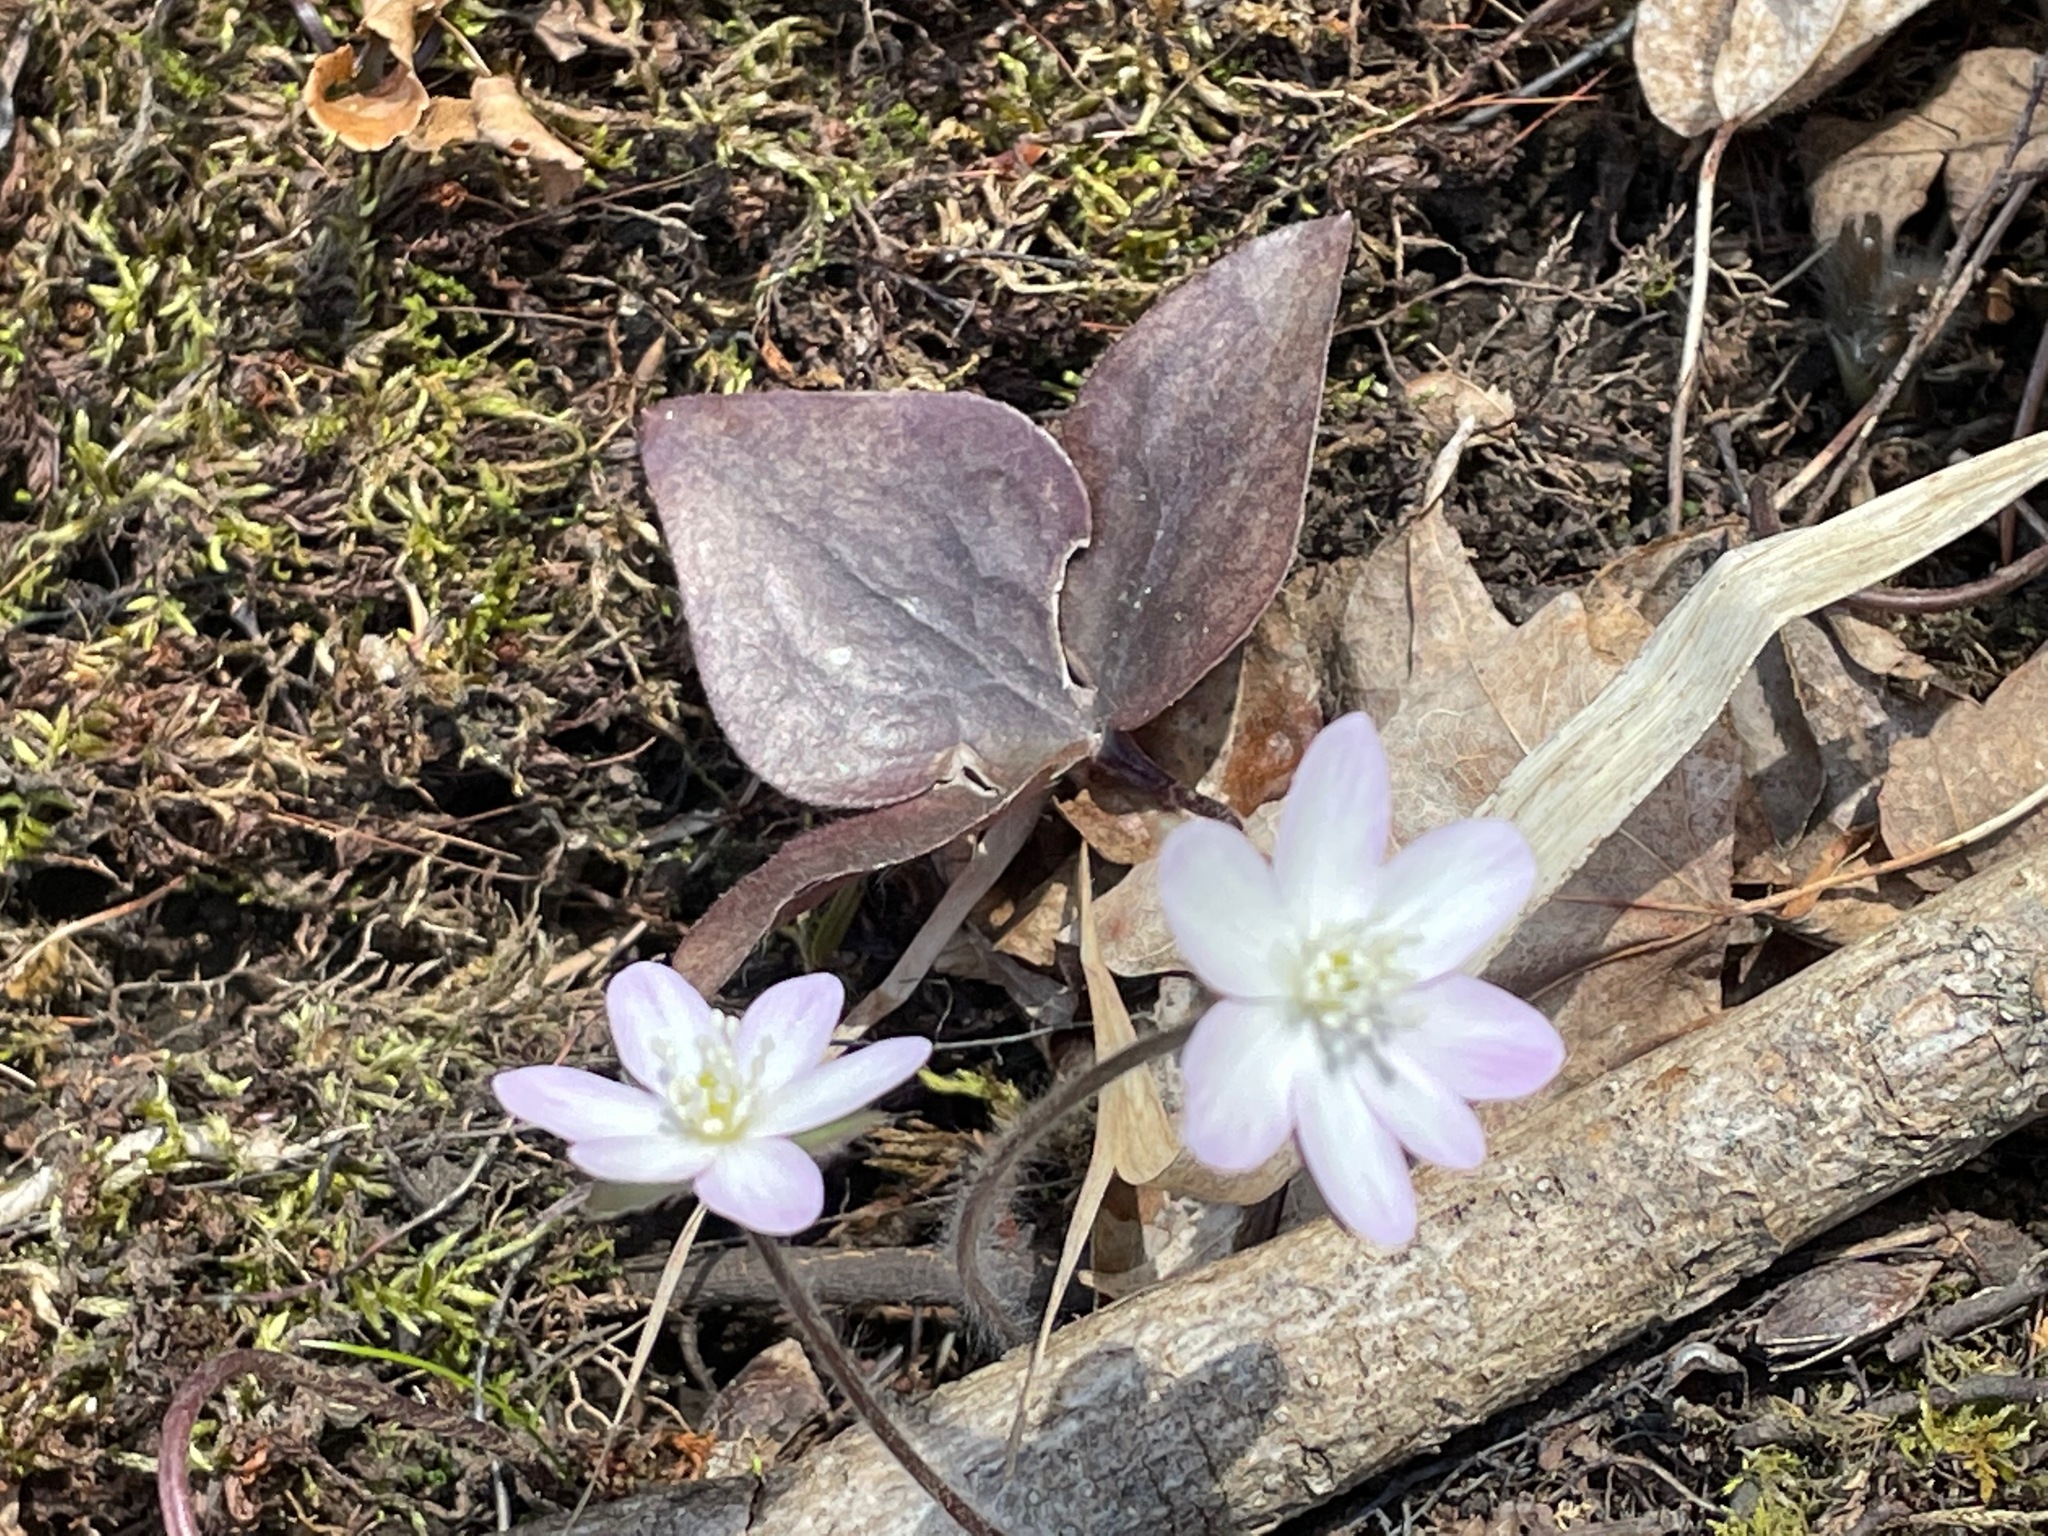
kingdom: Plantae
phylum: Tracheophyta
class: Magnoliopsida
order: Ranunculales
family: Ranunculaceae
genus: Hepatica
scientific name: Hepatica acutiloba
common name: Sharp-lobed hepatica
